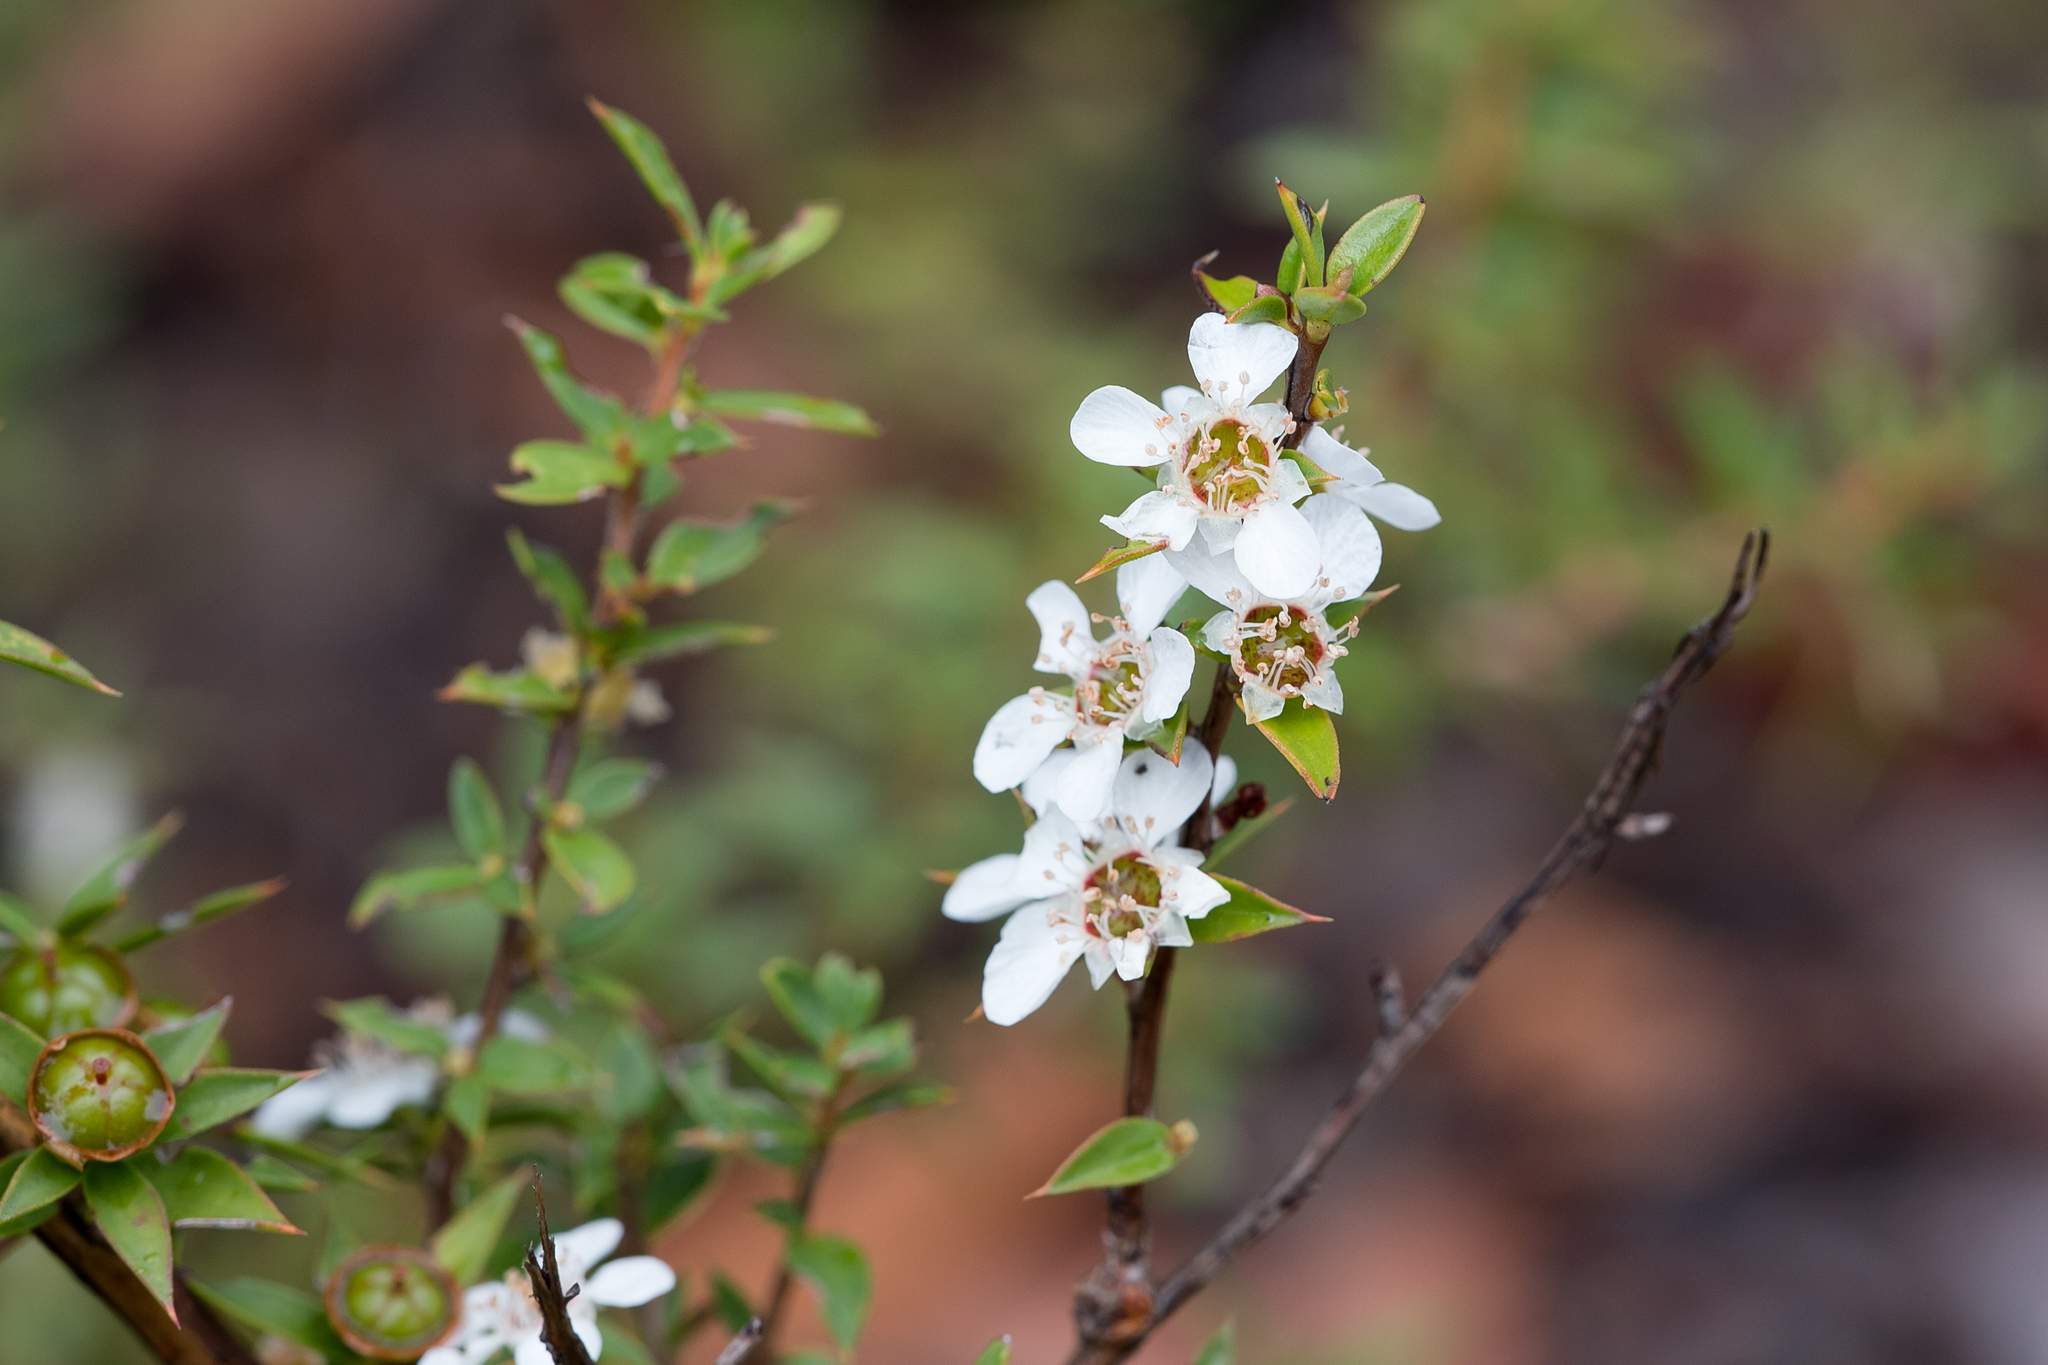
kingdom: Plantae
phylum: Tracheophyta
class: Magnoliopsida
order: Myrtales
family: Myrtaceae
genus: Leptospermum
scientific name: Leptospermum scoparium
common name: Broom tea-tree
